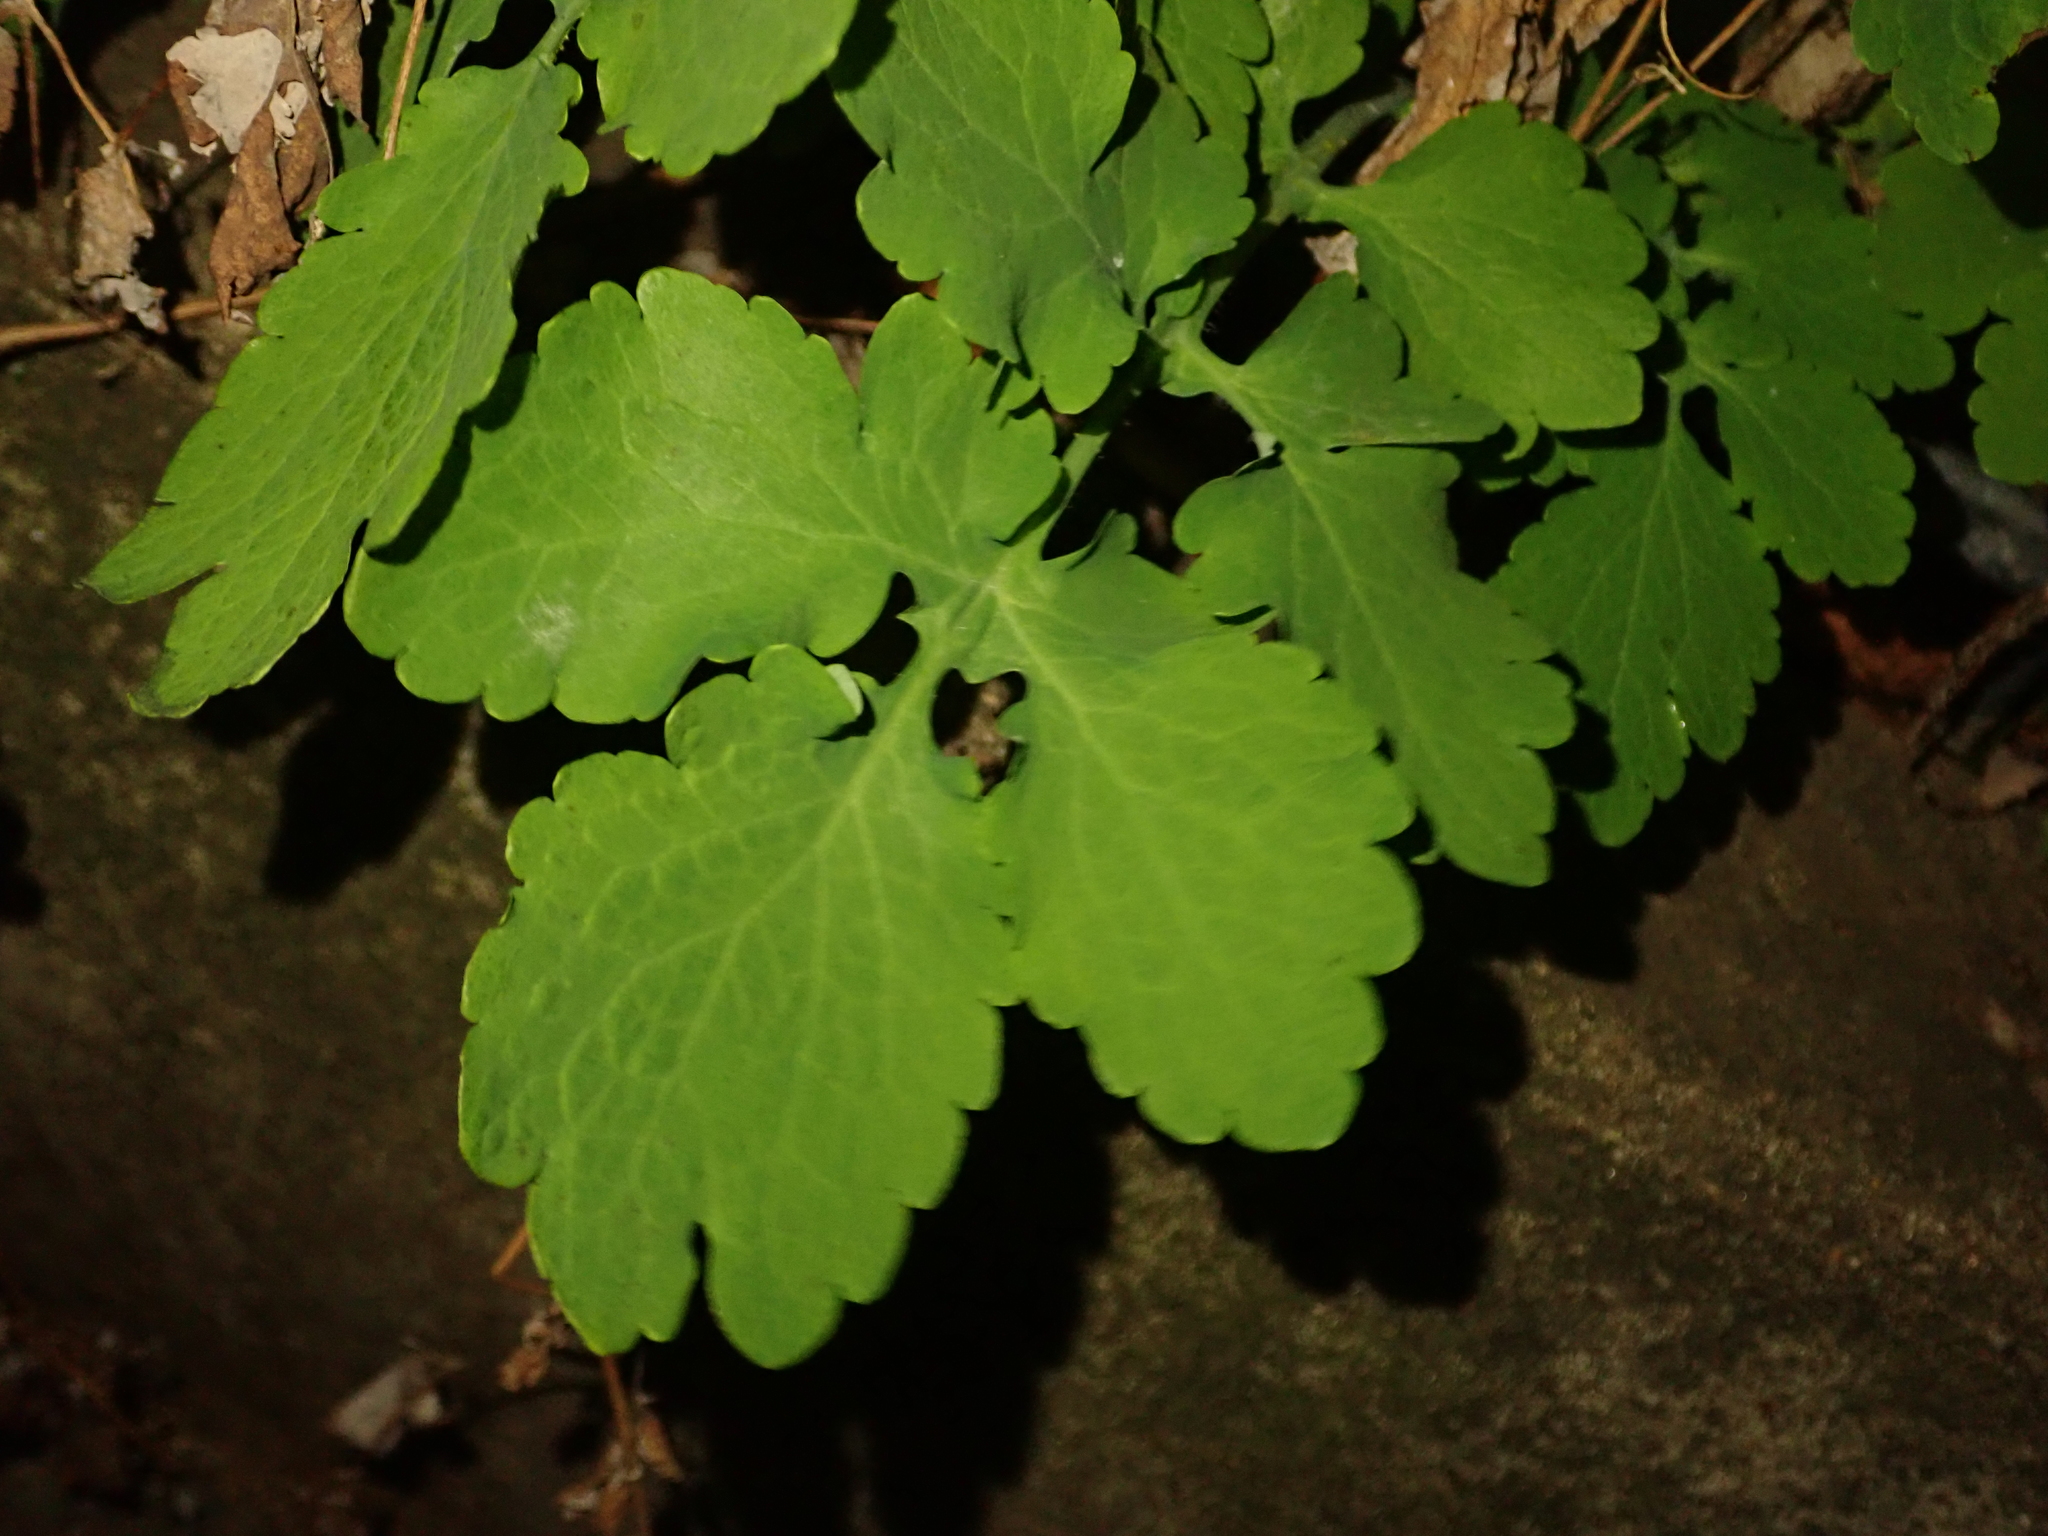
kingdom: Plantae
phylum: Tracheophyta
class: Magnoliopsida
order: Ranunculales
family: Papaveraceae
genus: Chelidonium
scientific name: Chelidonium majus
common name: Greater celandine
